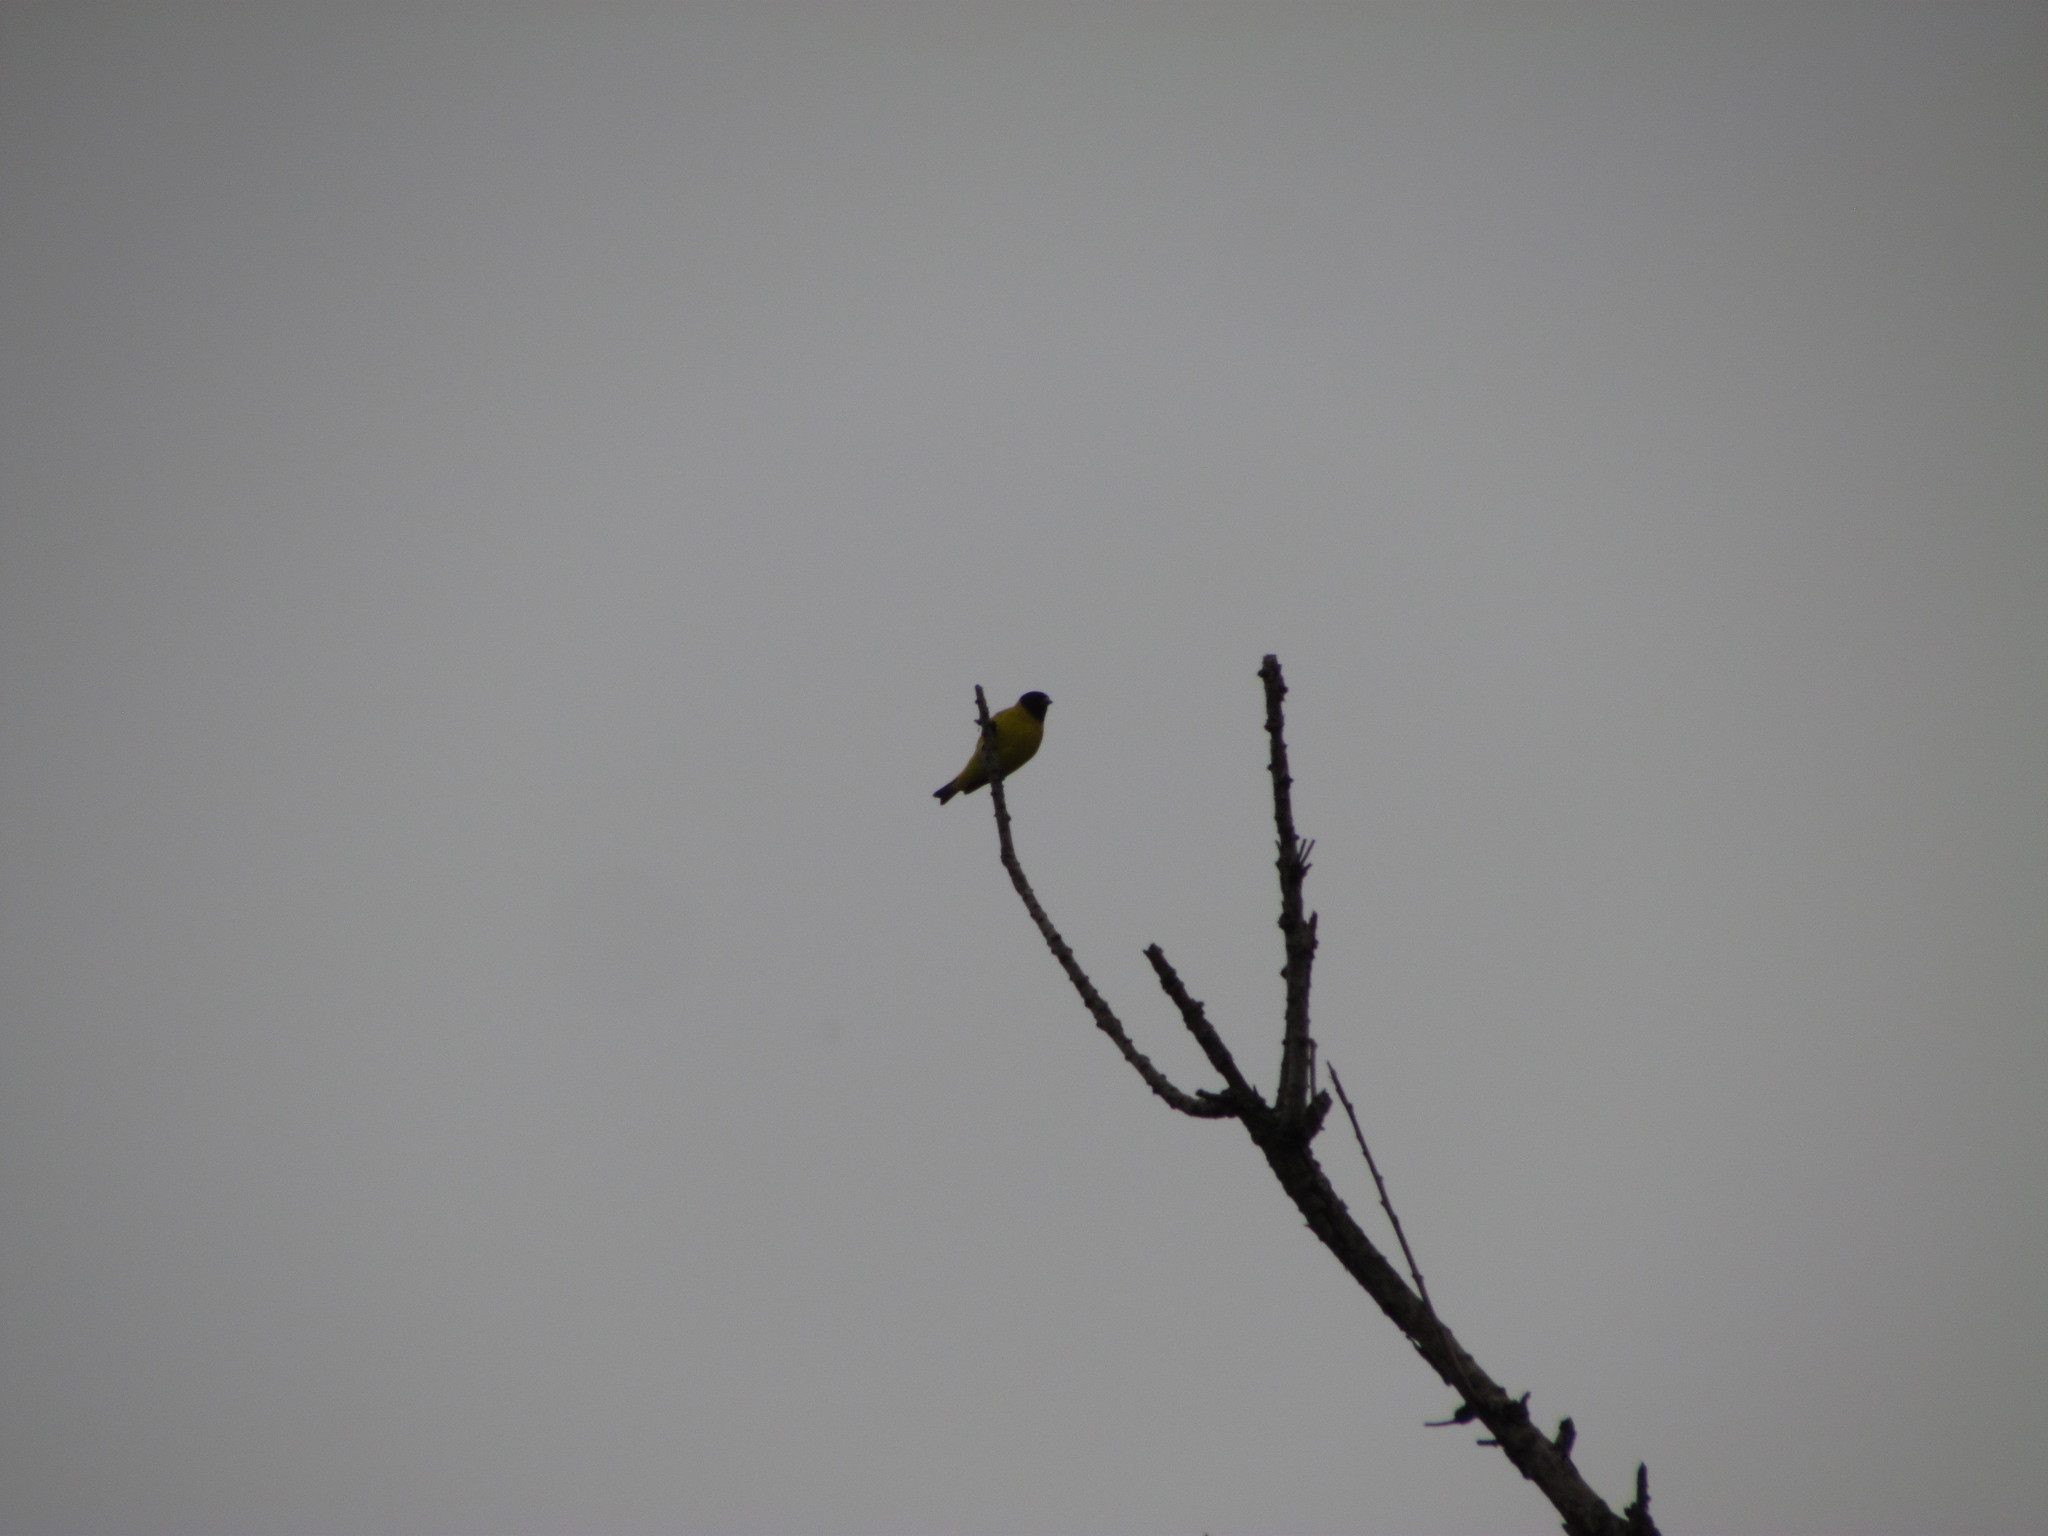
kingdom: Animalia
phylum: Chordata
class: Aves
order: Passeriformes
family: Fringillidae
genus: Spinus
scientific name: Spinus magellanicus
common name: Hooded siskin
